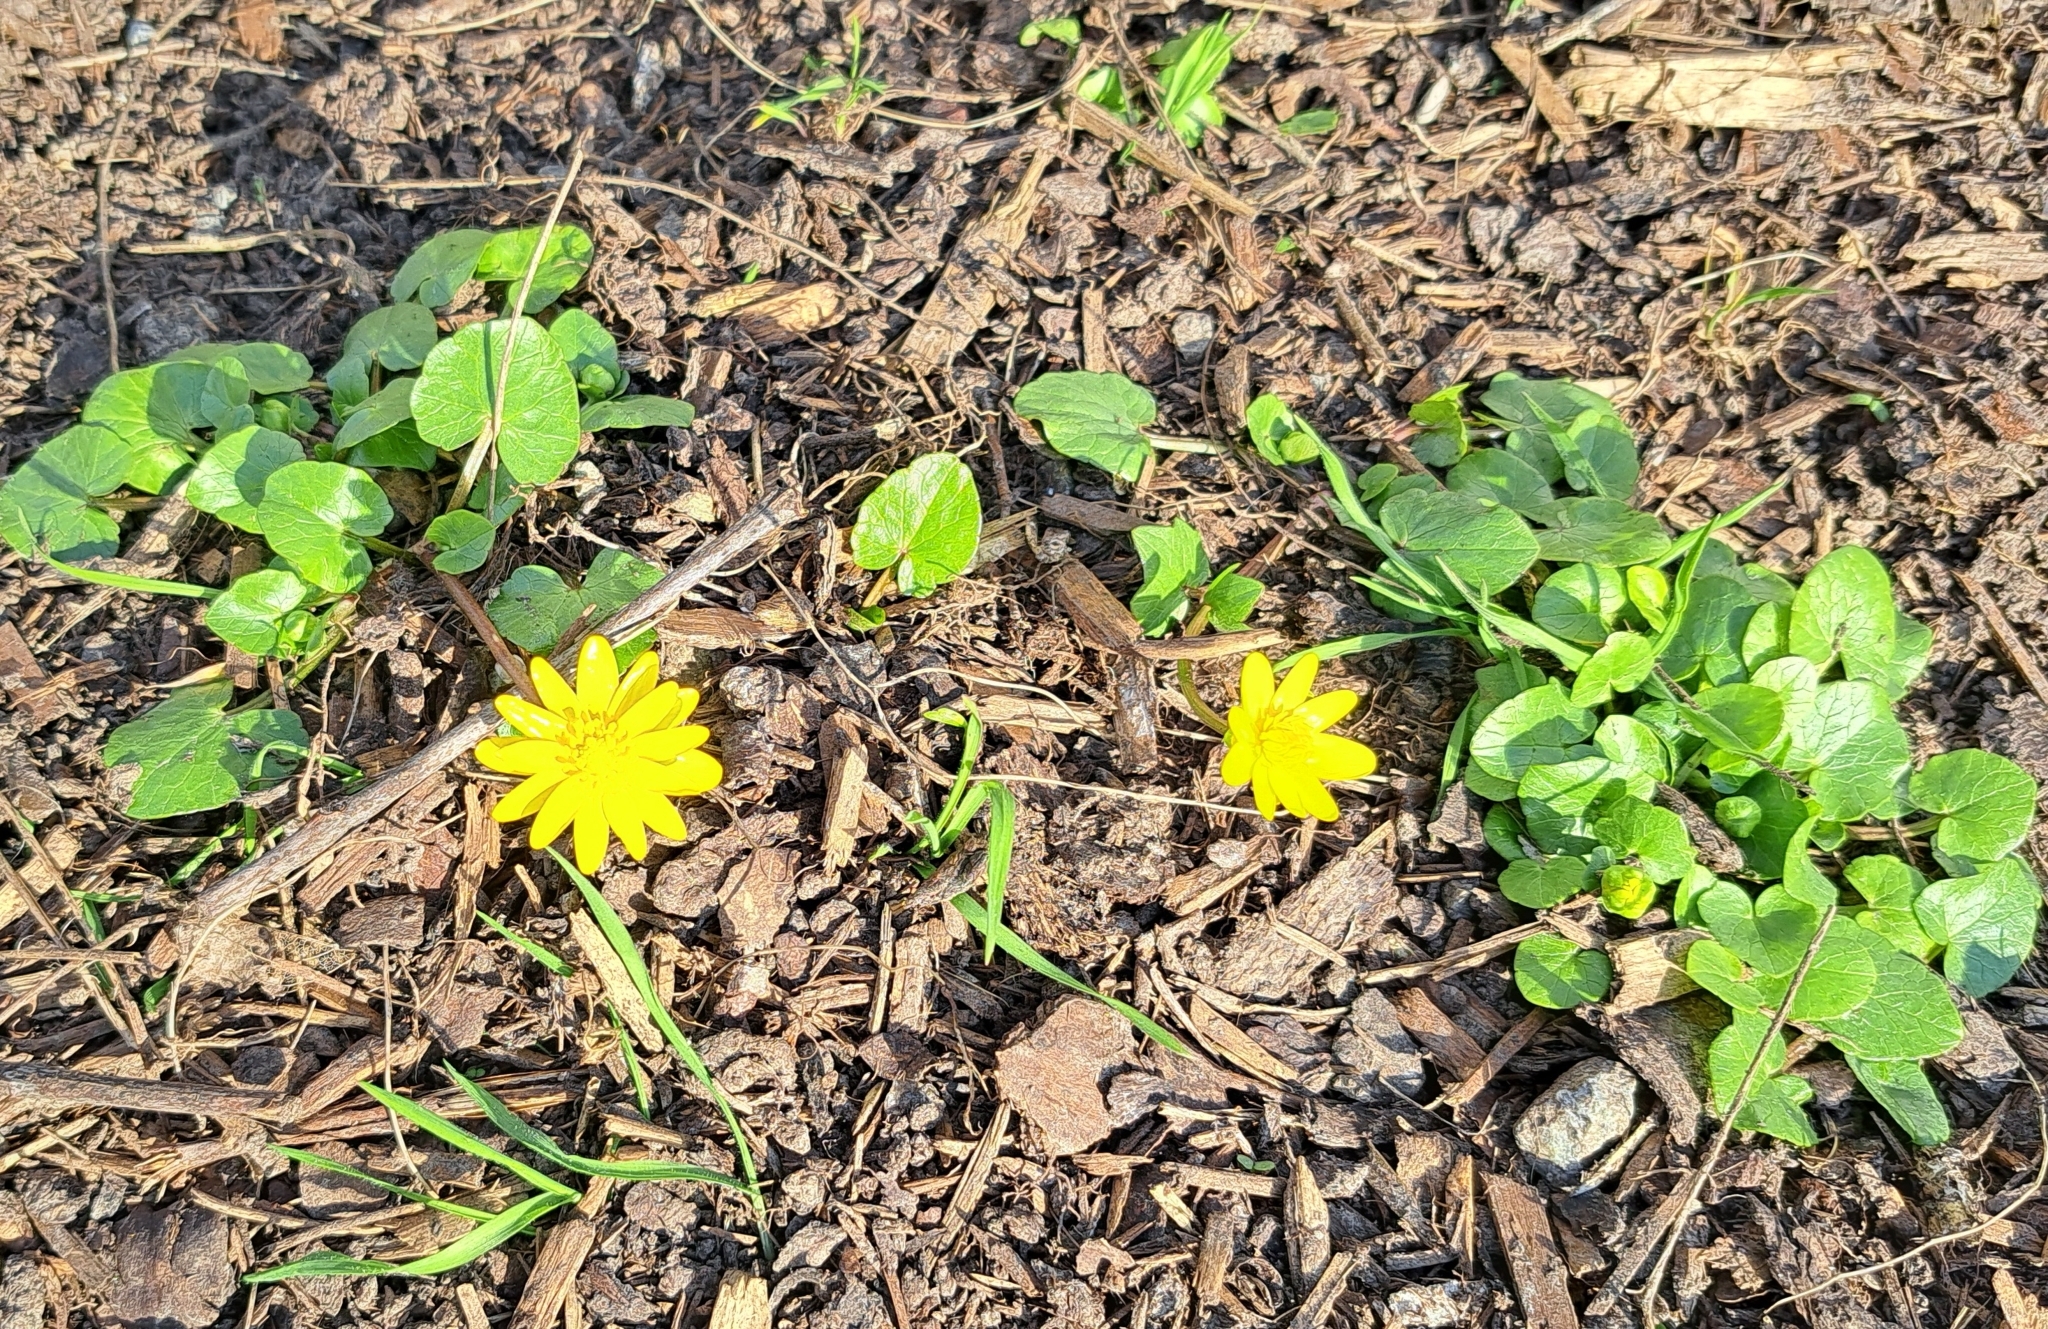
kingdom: Plantae
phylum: Tracheophyta
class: Magnoliopsida
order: Ranunculales
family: Ranunculaceae
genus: Ficaria
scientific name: Ficaria verna
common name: Lesser celandine
